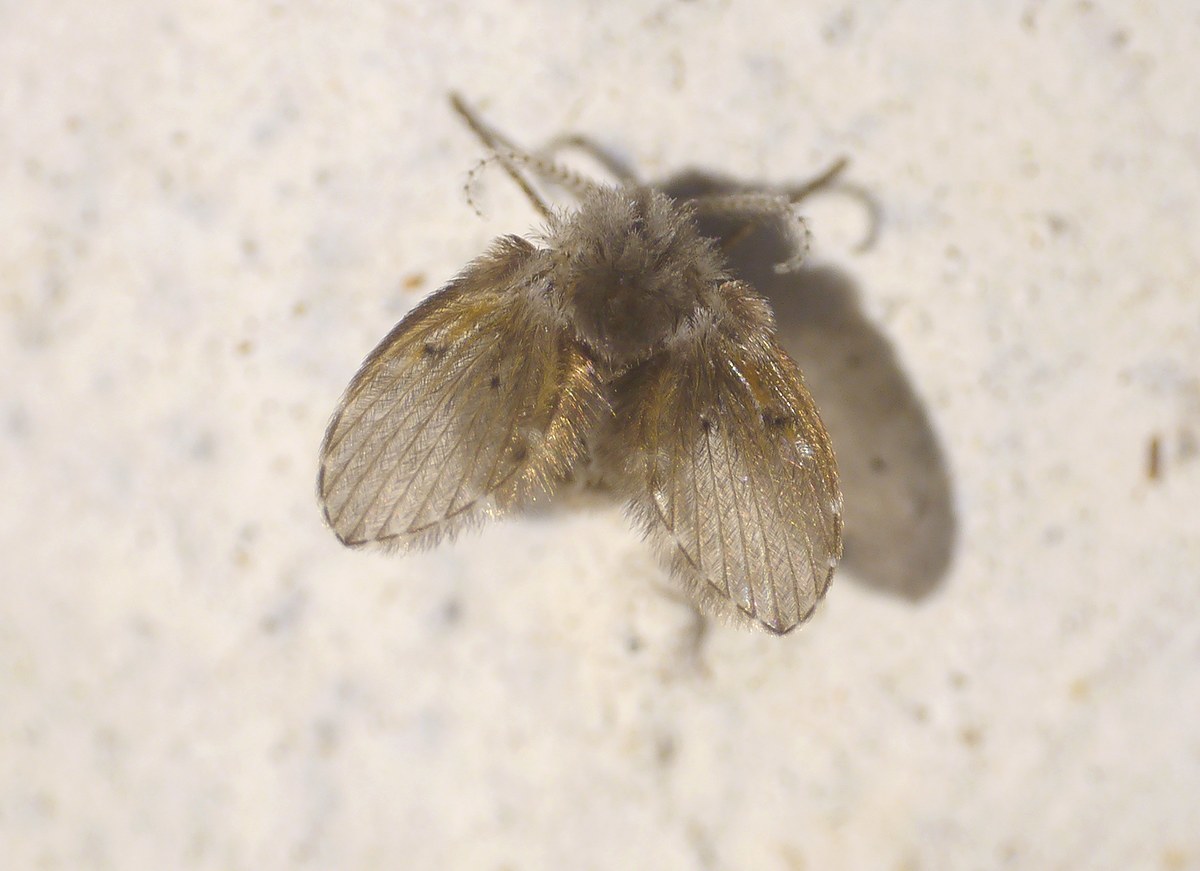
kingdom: Animalia
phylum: Arthropoda
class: Insecta
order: Diptera
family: Psychodidae
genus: Clogmia
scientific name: Clogmia albipunctatus
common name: White-spotted moth fly
